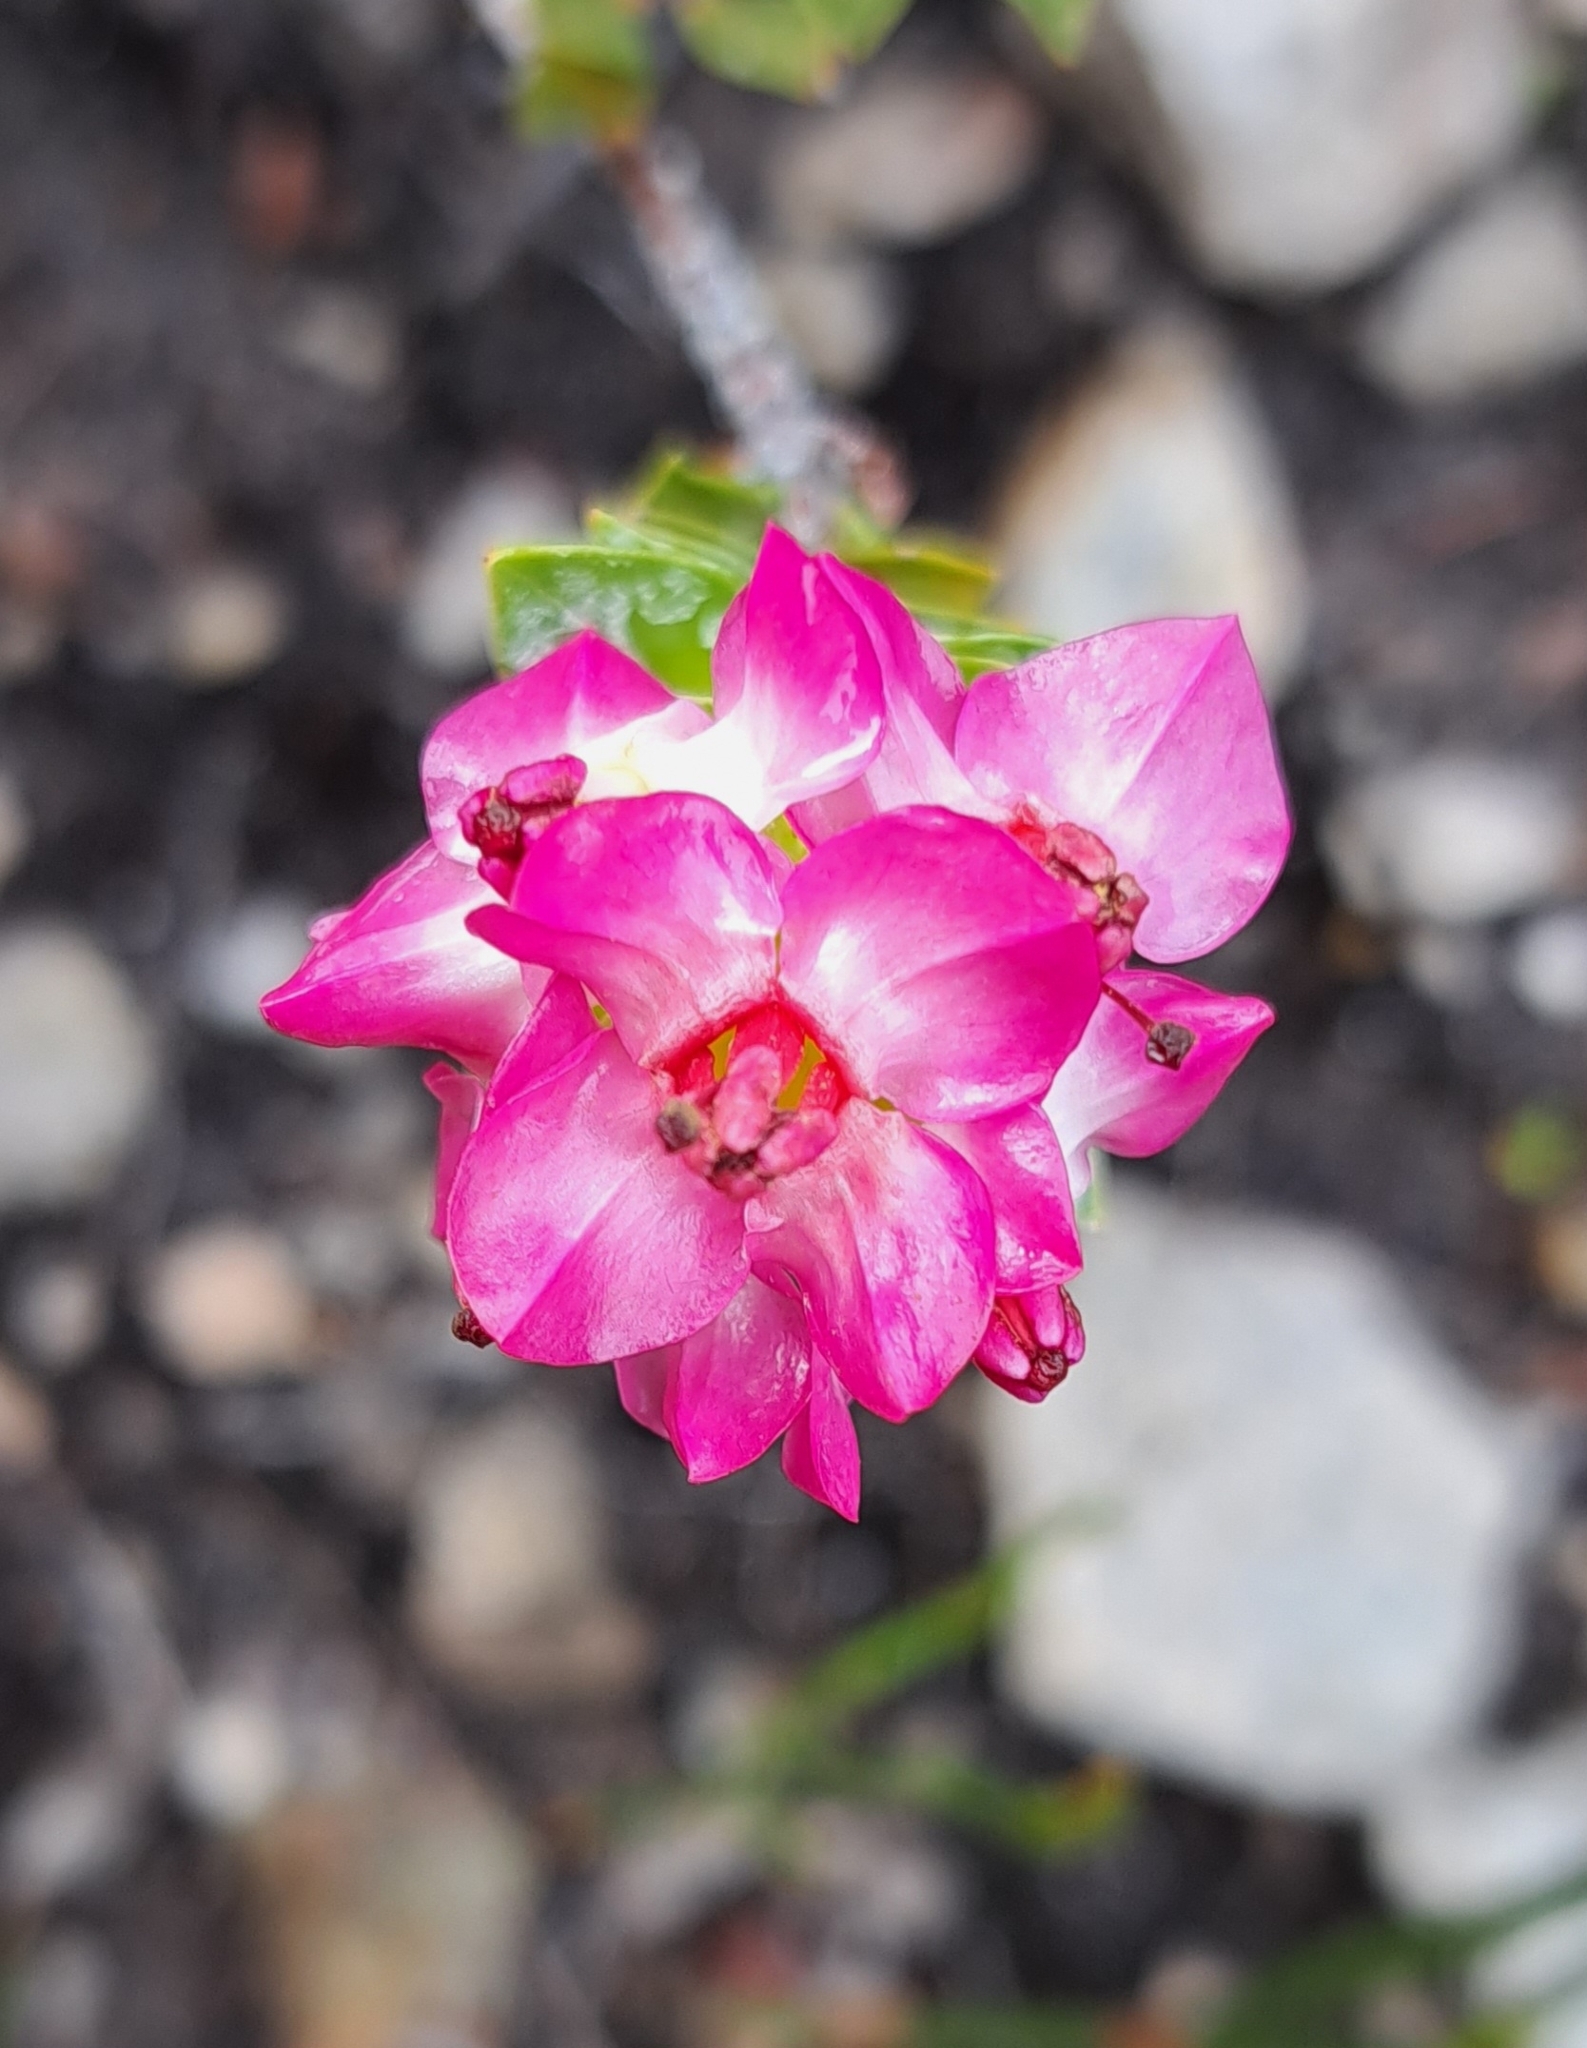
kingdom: Plantae
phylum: Tracheophyta
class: Magnoliopsida
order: Myrtales
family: Penaeaceae
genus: Saltera
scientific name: Saltera sarcocolla
